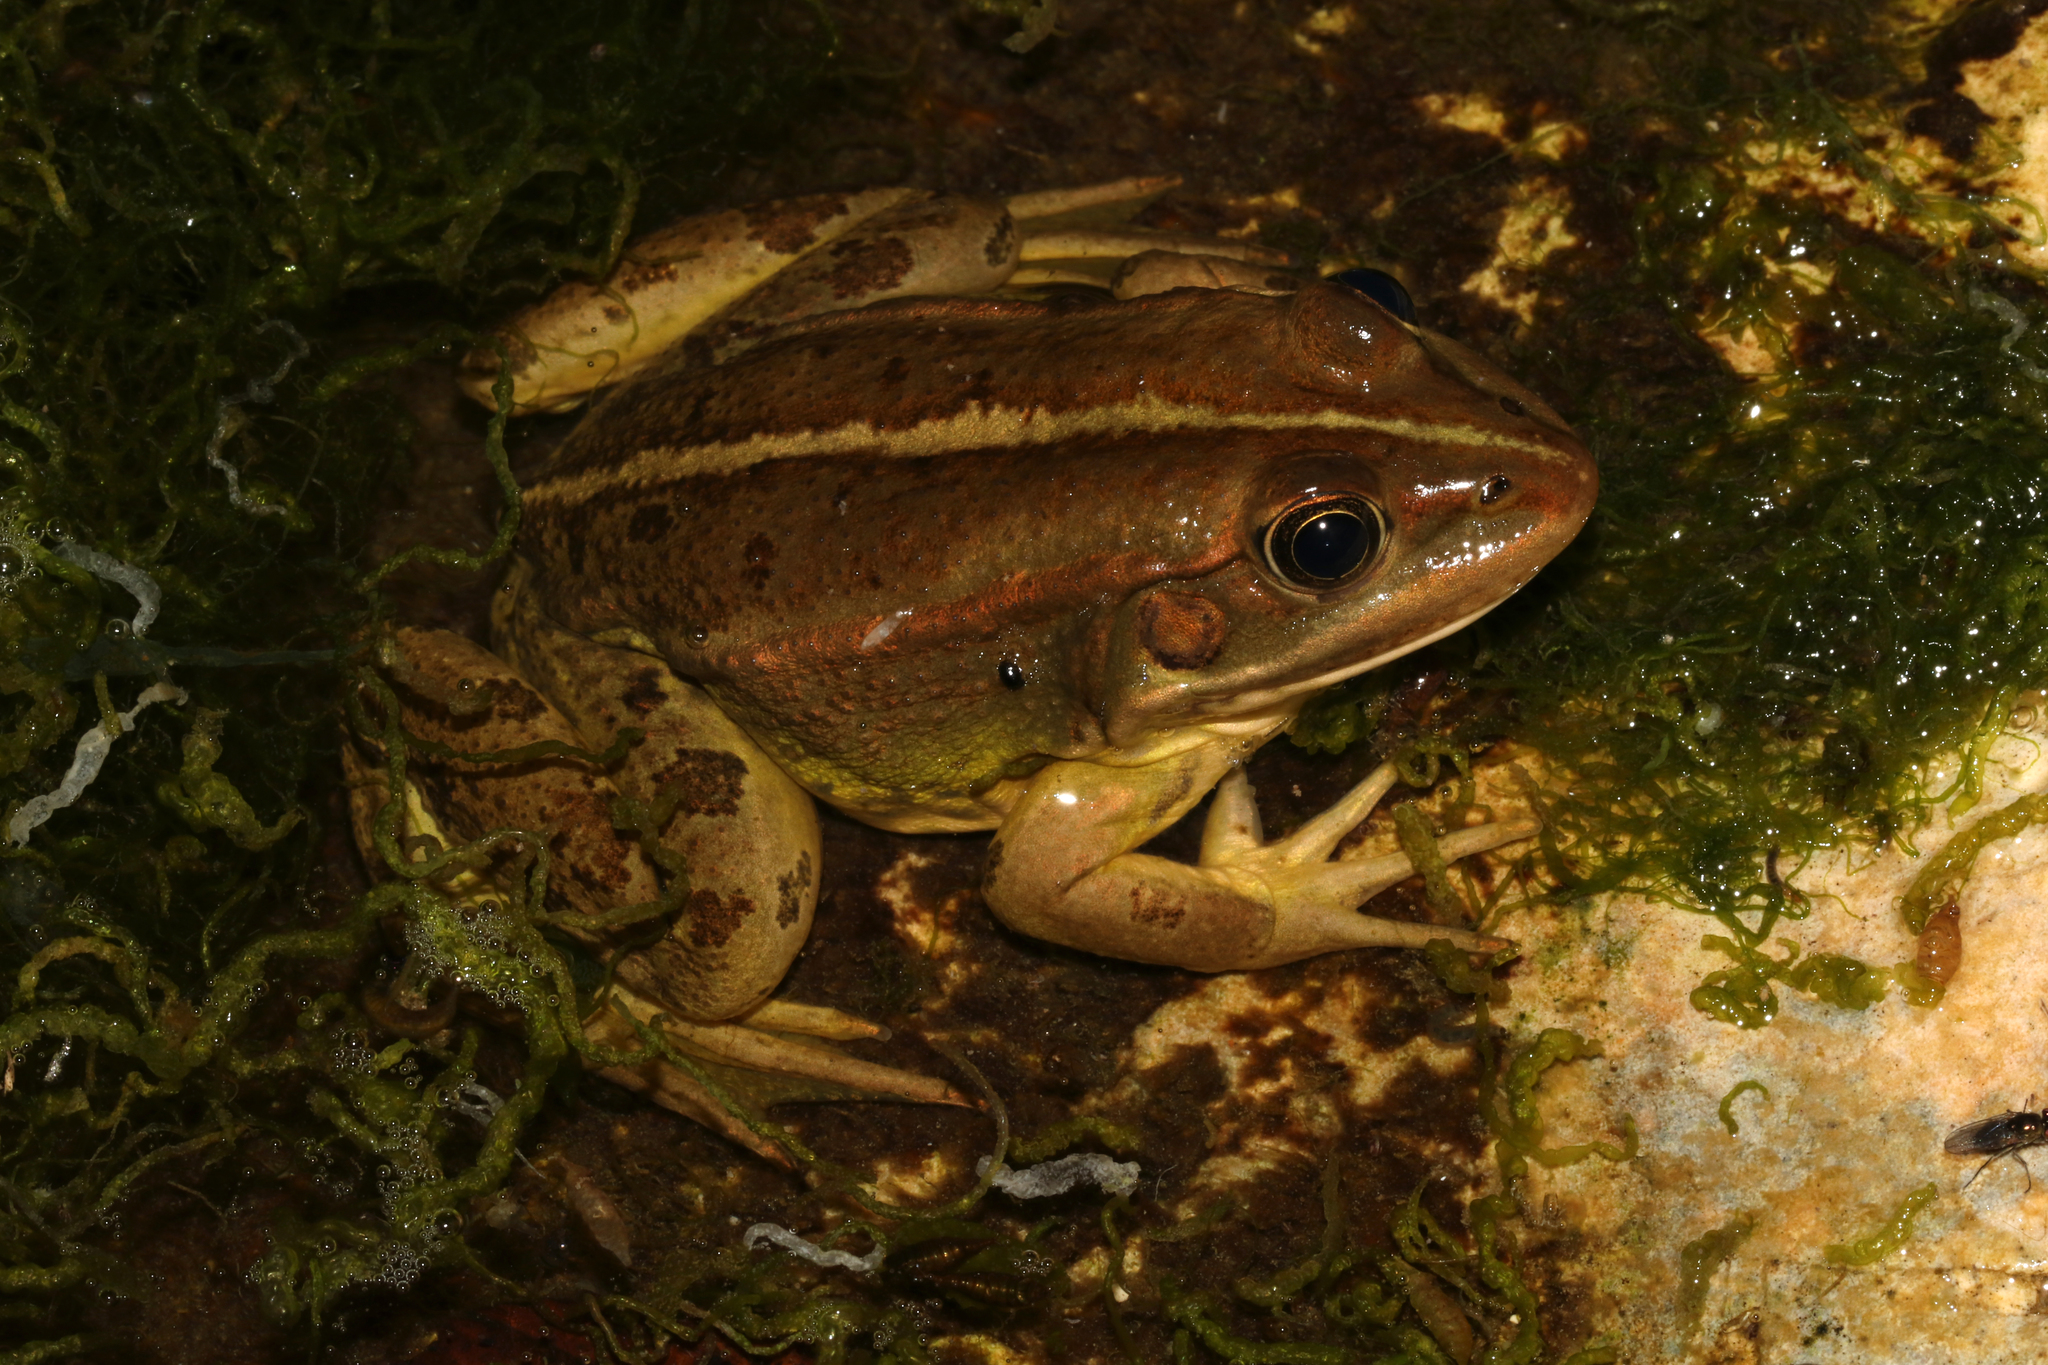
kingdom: Animalia
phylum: Chordata
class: Amphibia
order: Anura
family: Ranidae
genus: Pelophylax
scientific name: Pelophylax epeiroticus
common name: Epirus water frog
